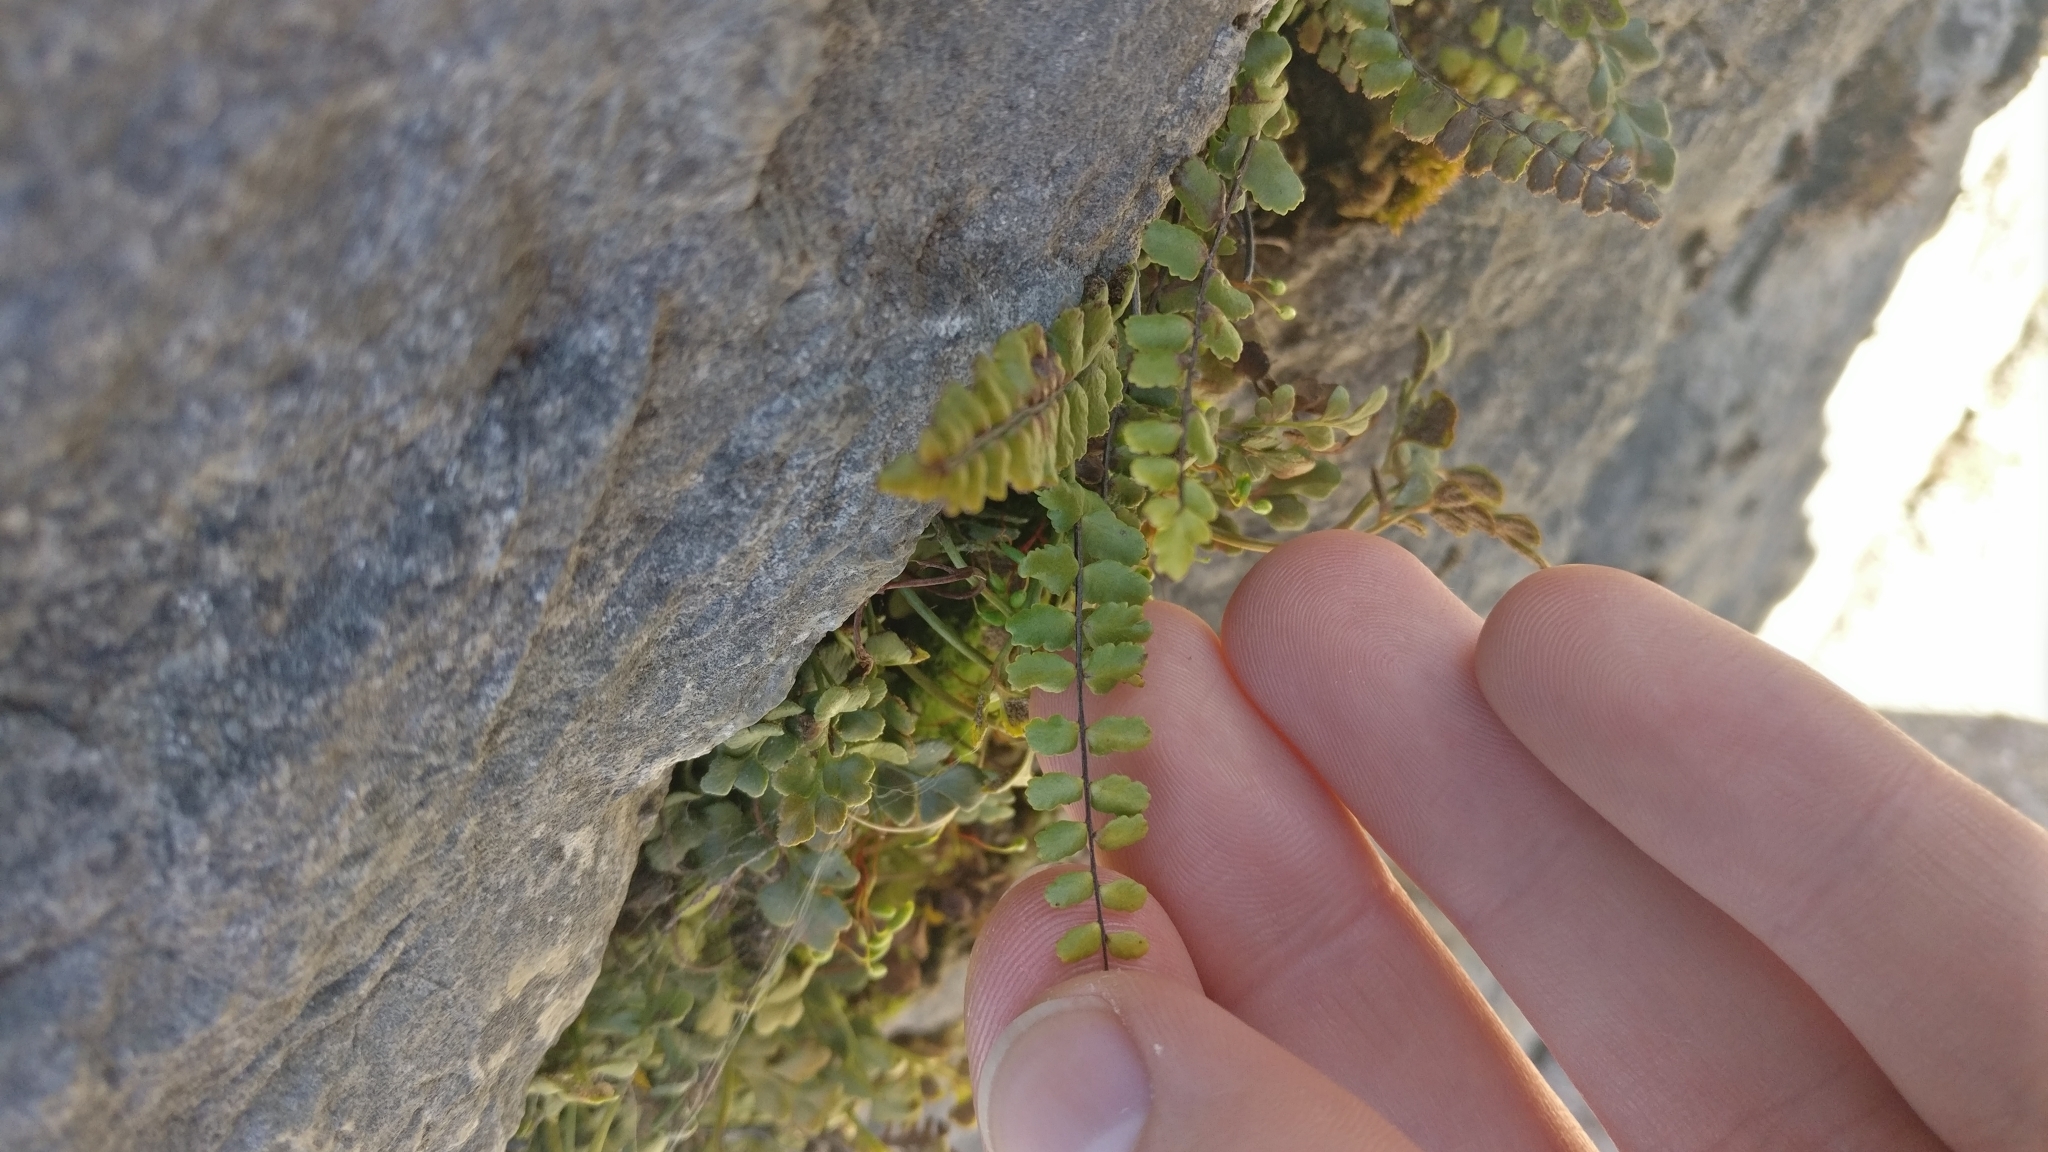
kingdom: Plantae
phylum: Tracheophyta
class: Polypodiopsida
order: Polypodiales
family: Aspleniaceae
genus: Asplenium
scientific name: Asplenium trichomanes
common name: Maidenhair spleenwort
